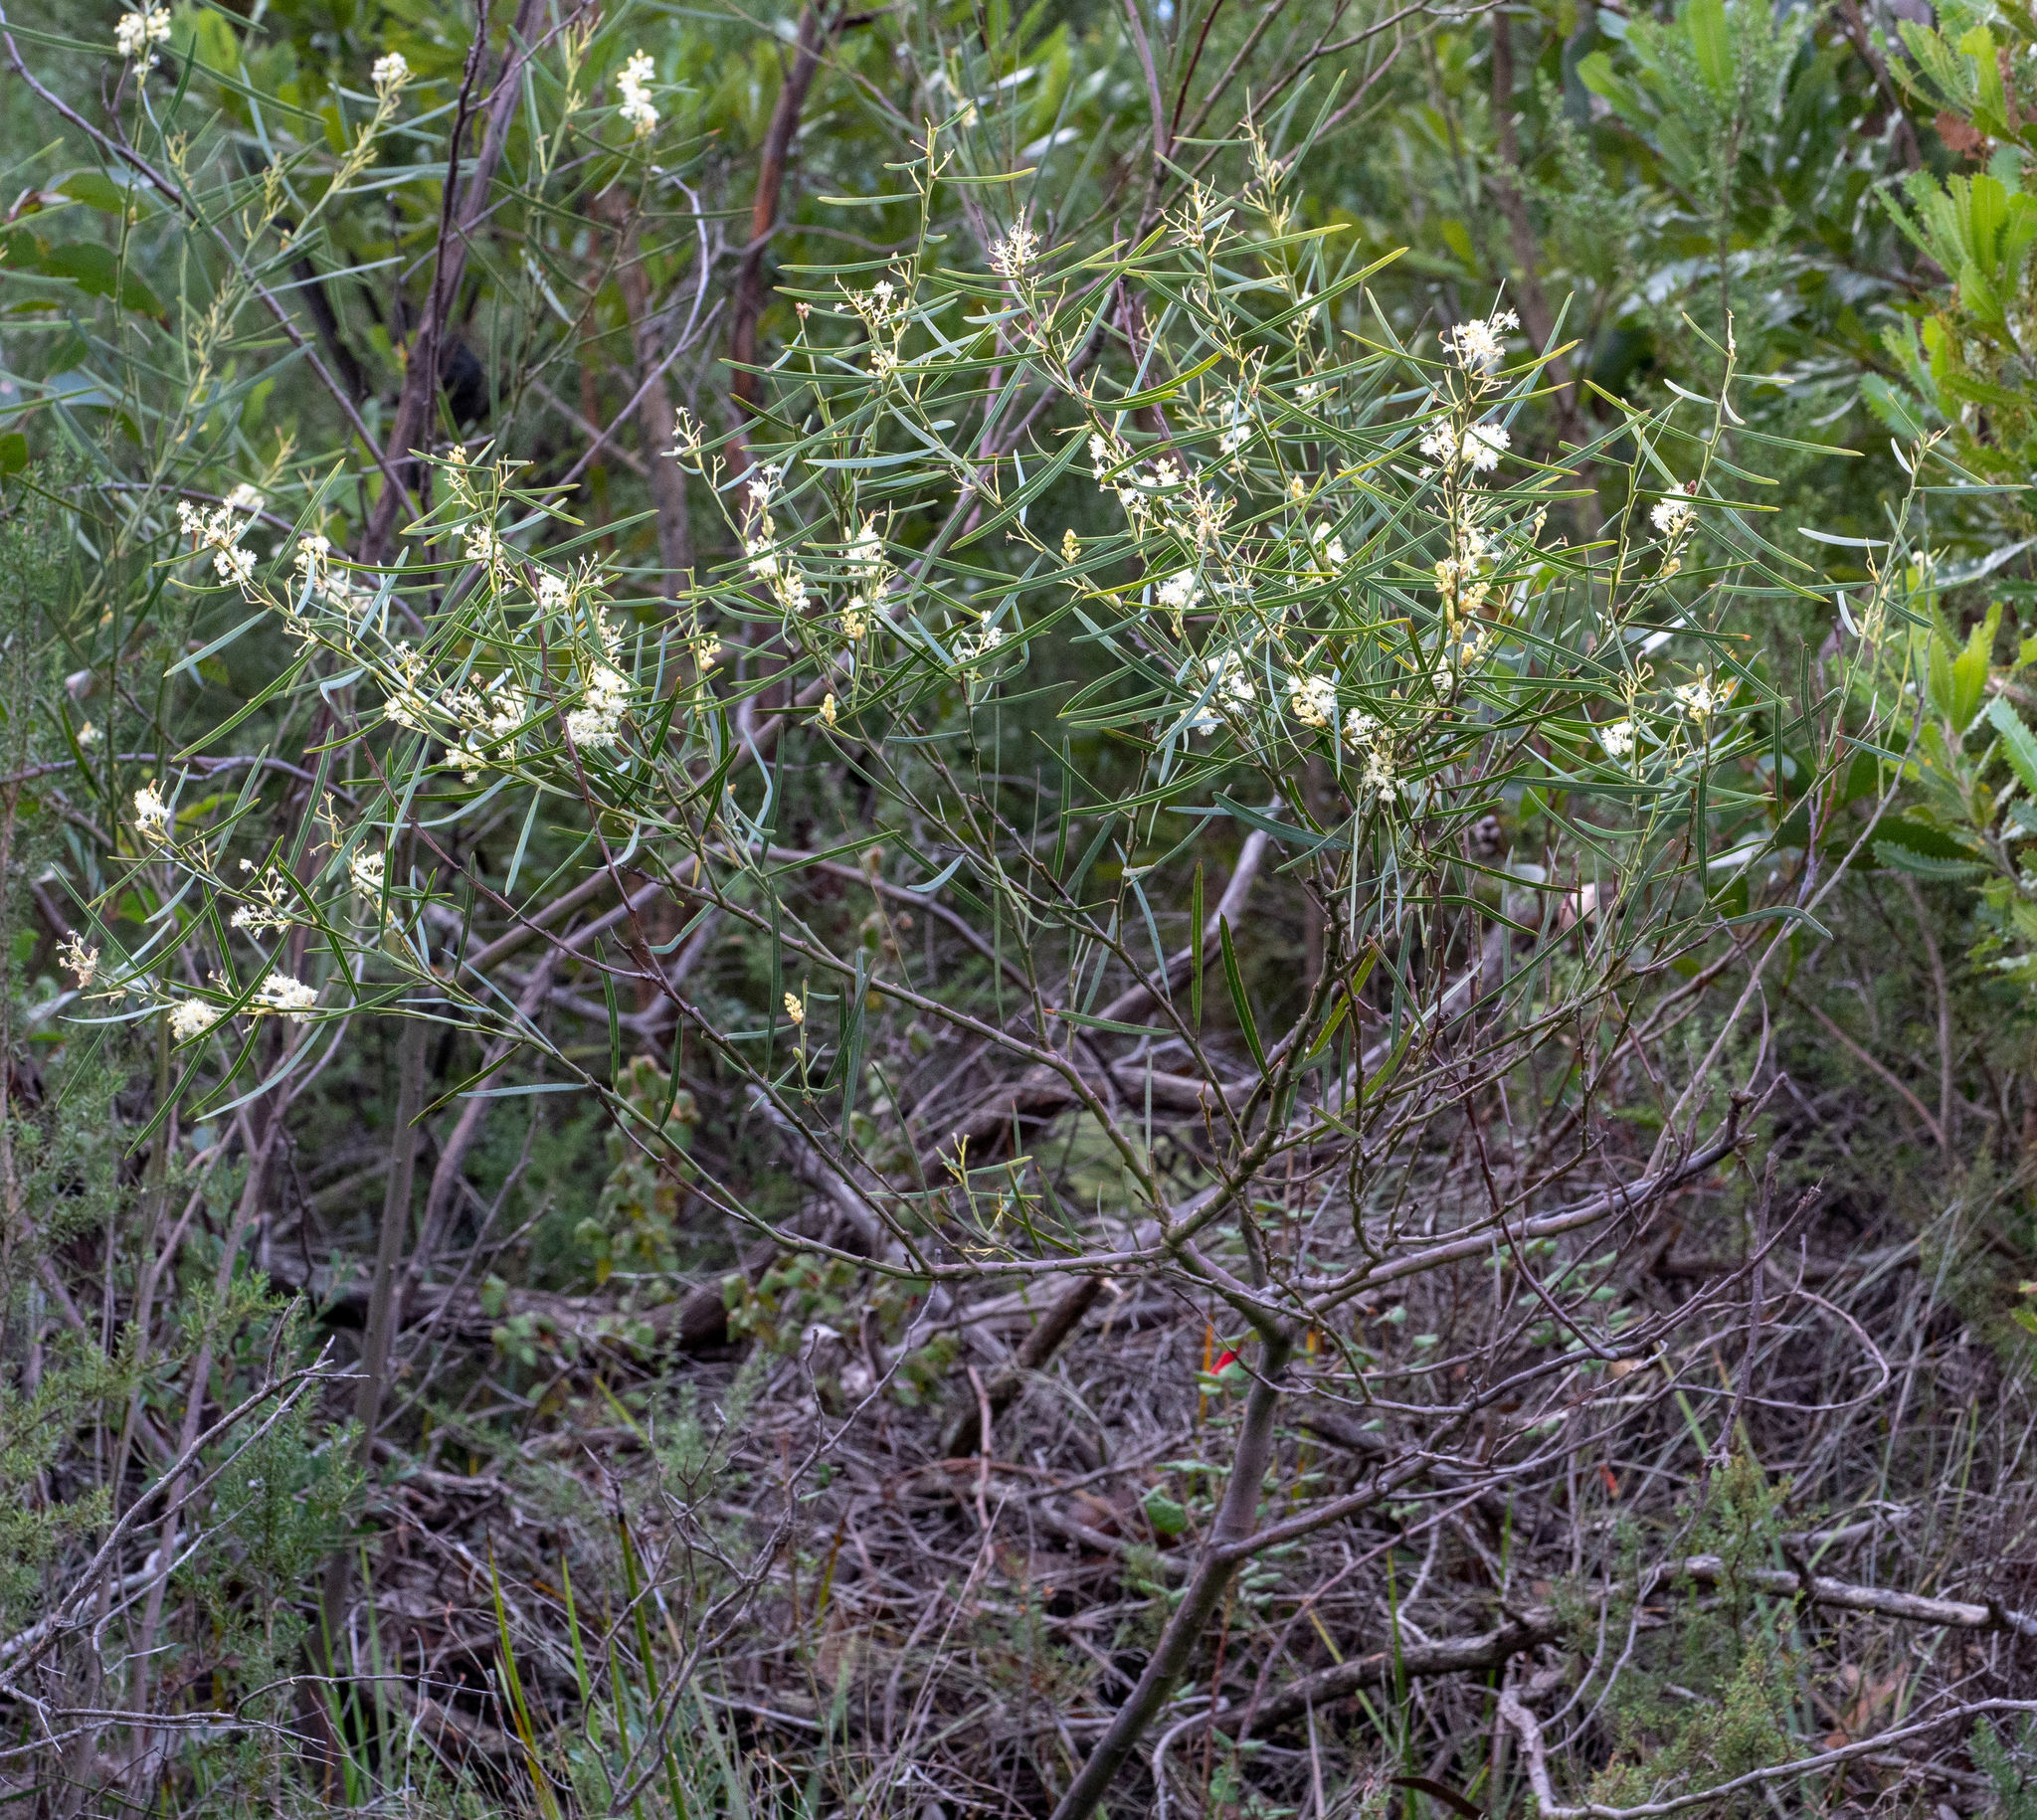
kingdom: Plantae
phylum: Tracheophyta
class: Magnoliopsida
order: Proteales
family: Proteaceae
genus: Hakea
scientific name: Hakea ulicina
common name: Furze hakea
